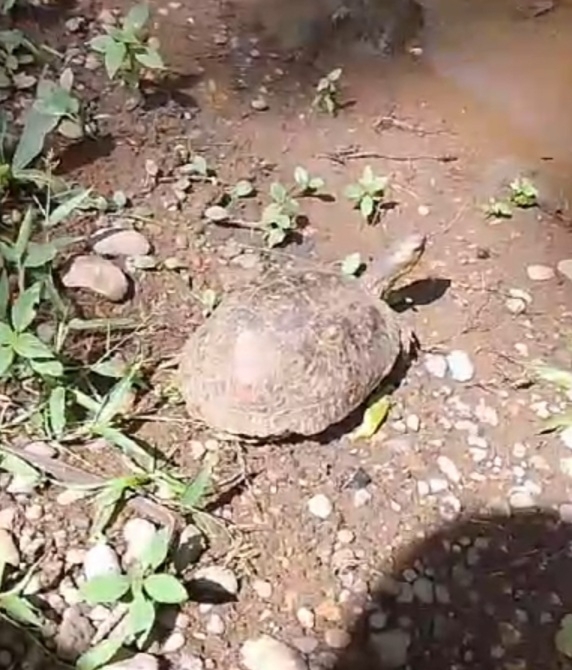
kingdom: Animalia
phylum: Chordata
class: Testudines
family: Geoemydidae
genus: Rhinoclemmys
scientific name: Rhinoclemmys pulcherrima
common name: Painted wood turtle
